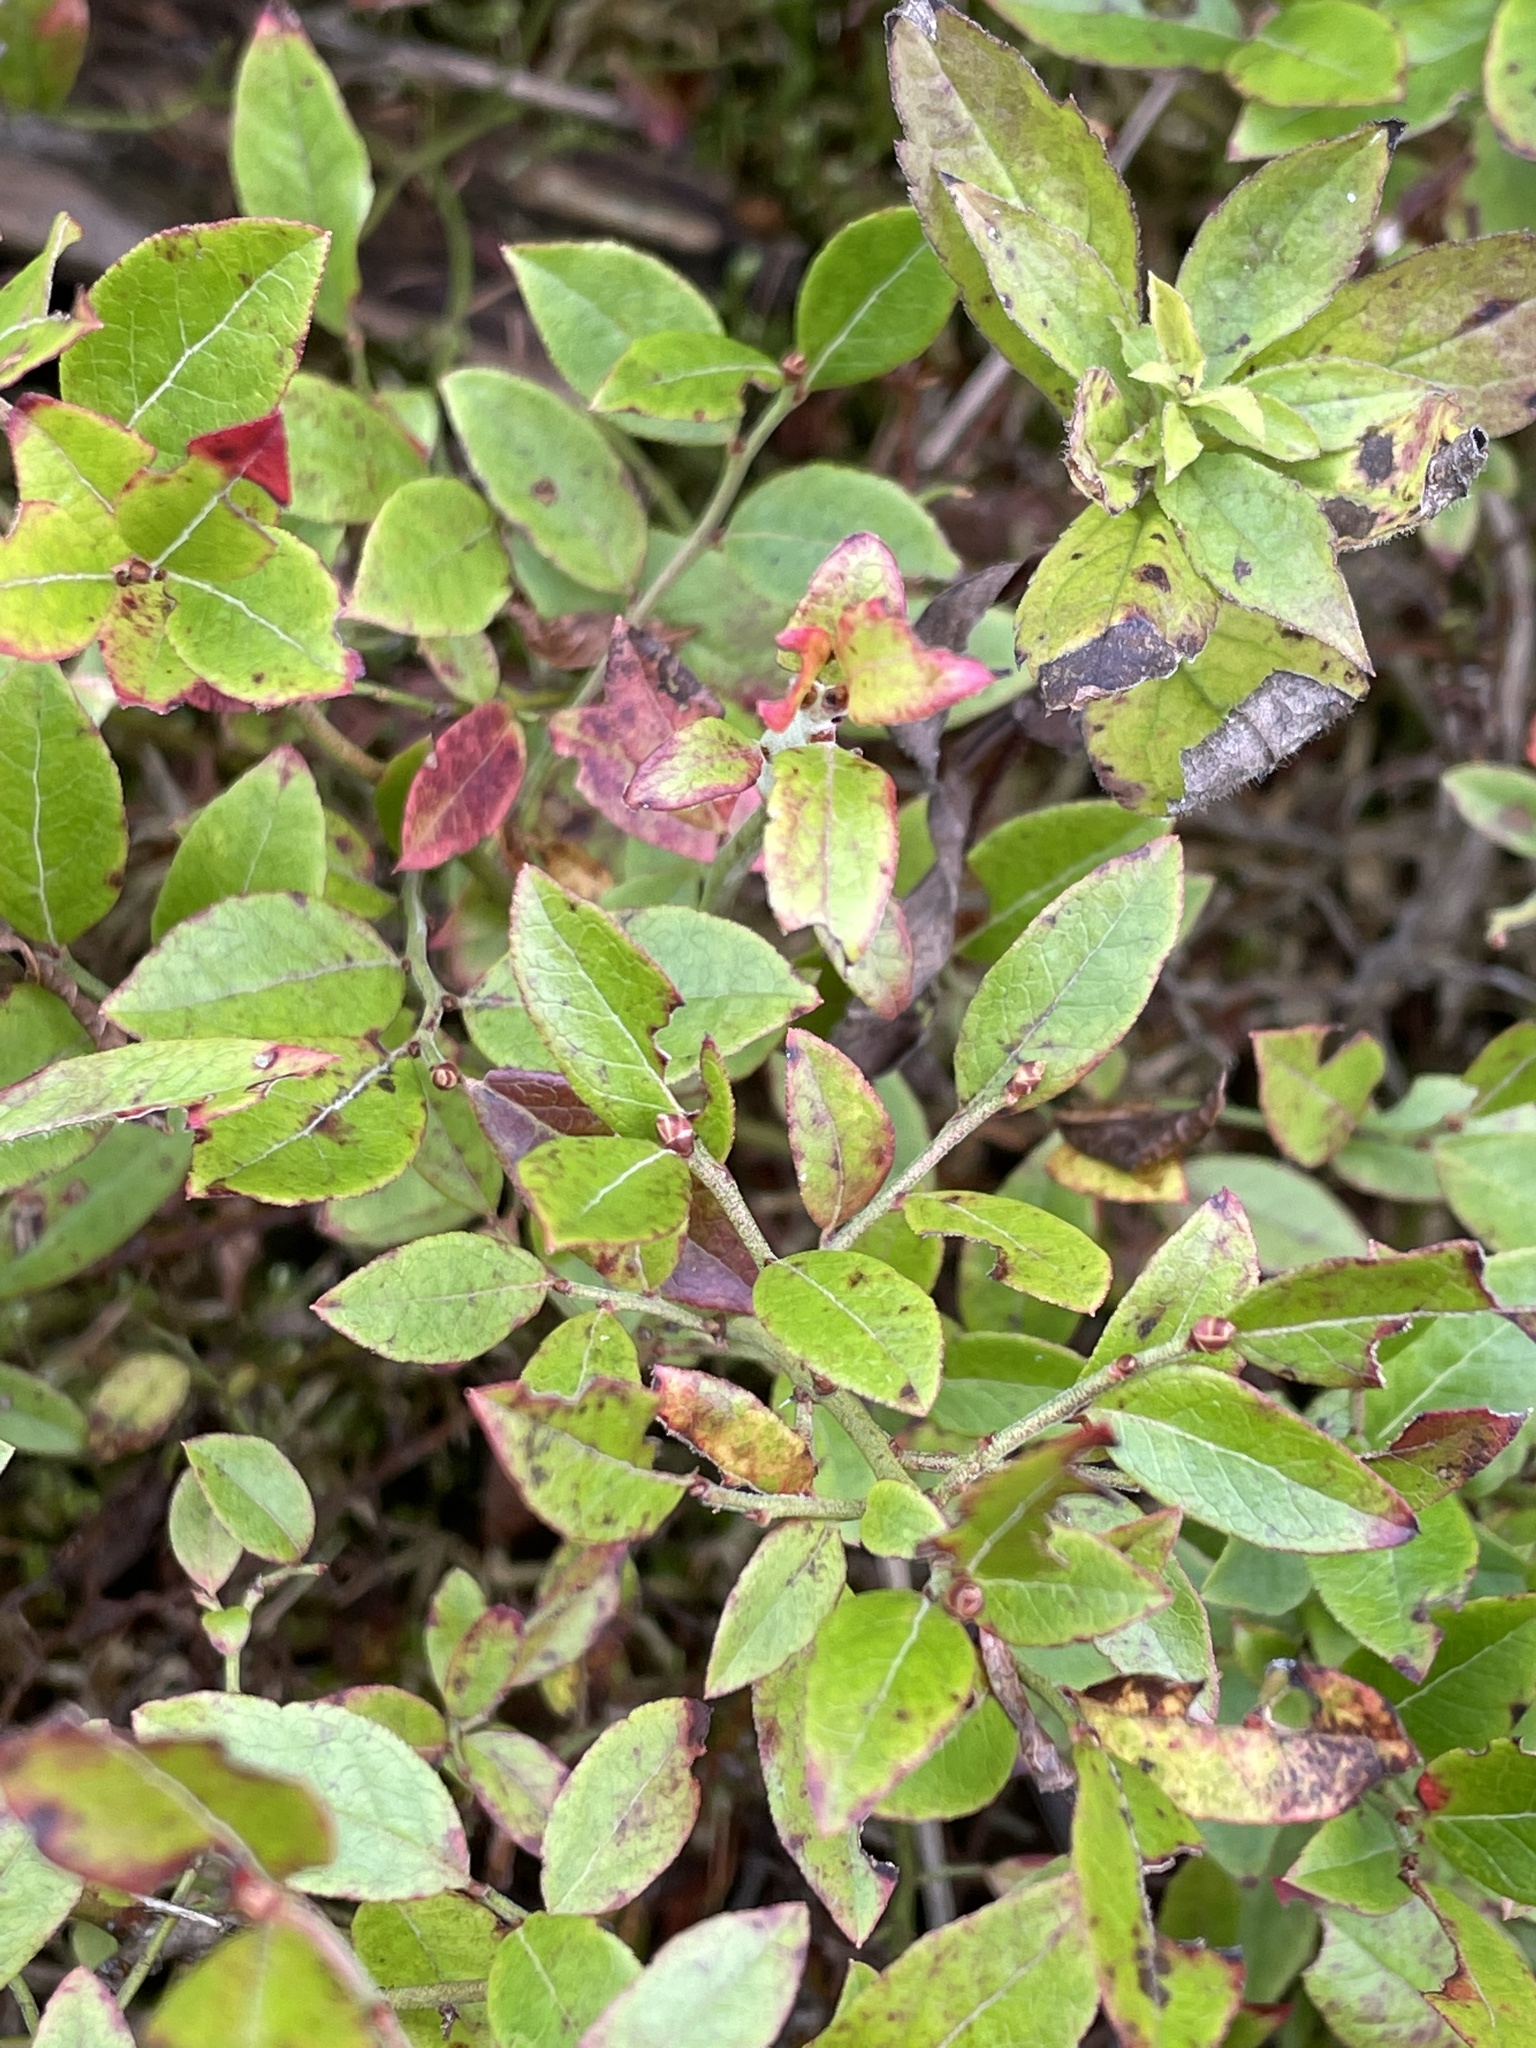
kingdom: Plantae
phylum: Tracheophyta
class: Magnoliopsida
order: Ericales
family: Ericaceae
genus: Vaccinium
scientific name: Vaccinium angustifolium
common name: Early lowbush blueberry
